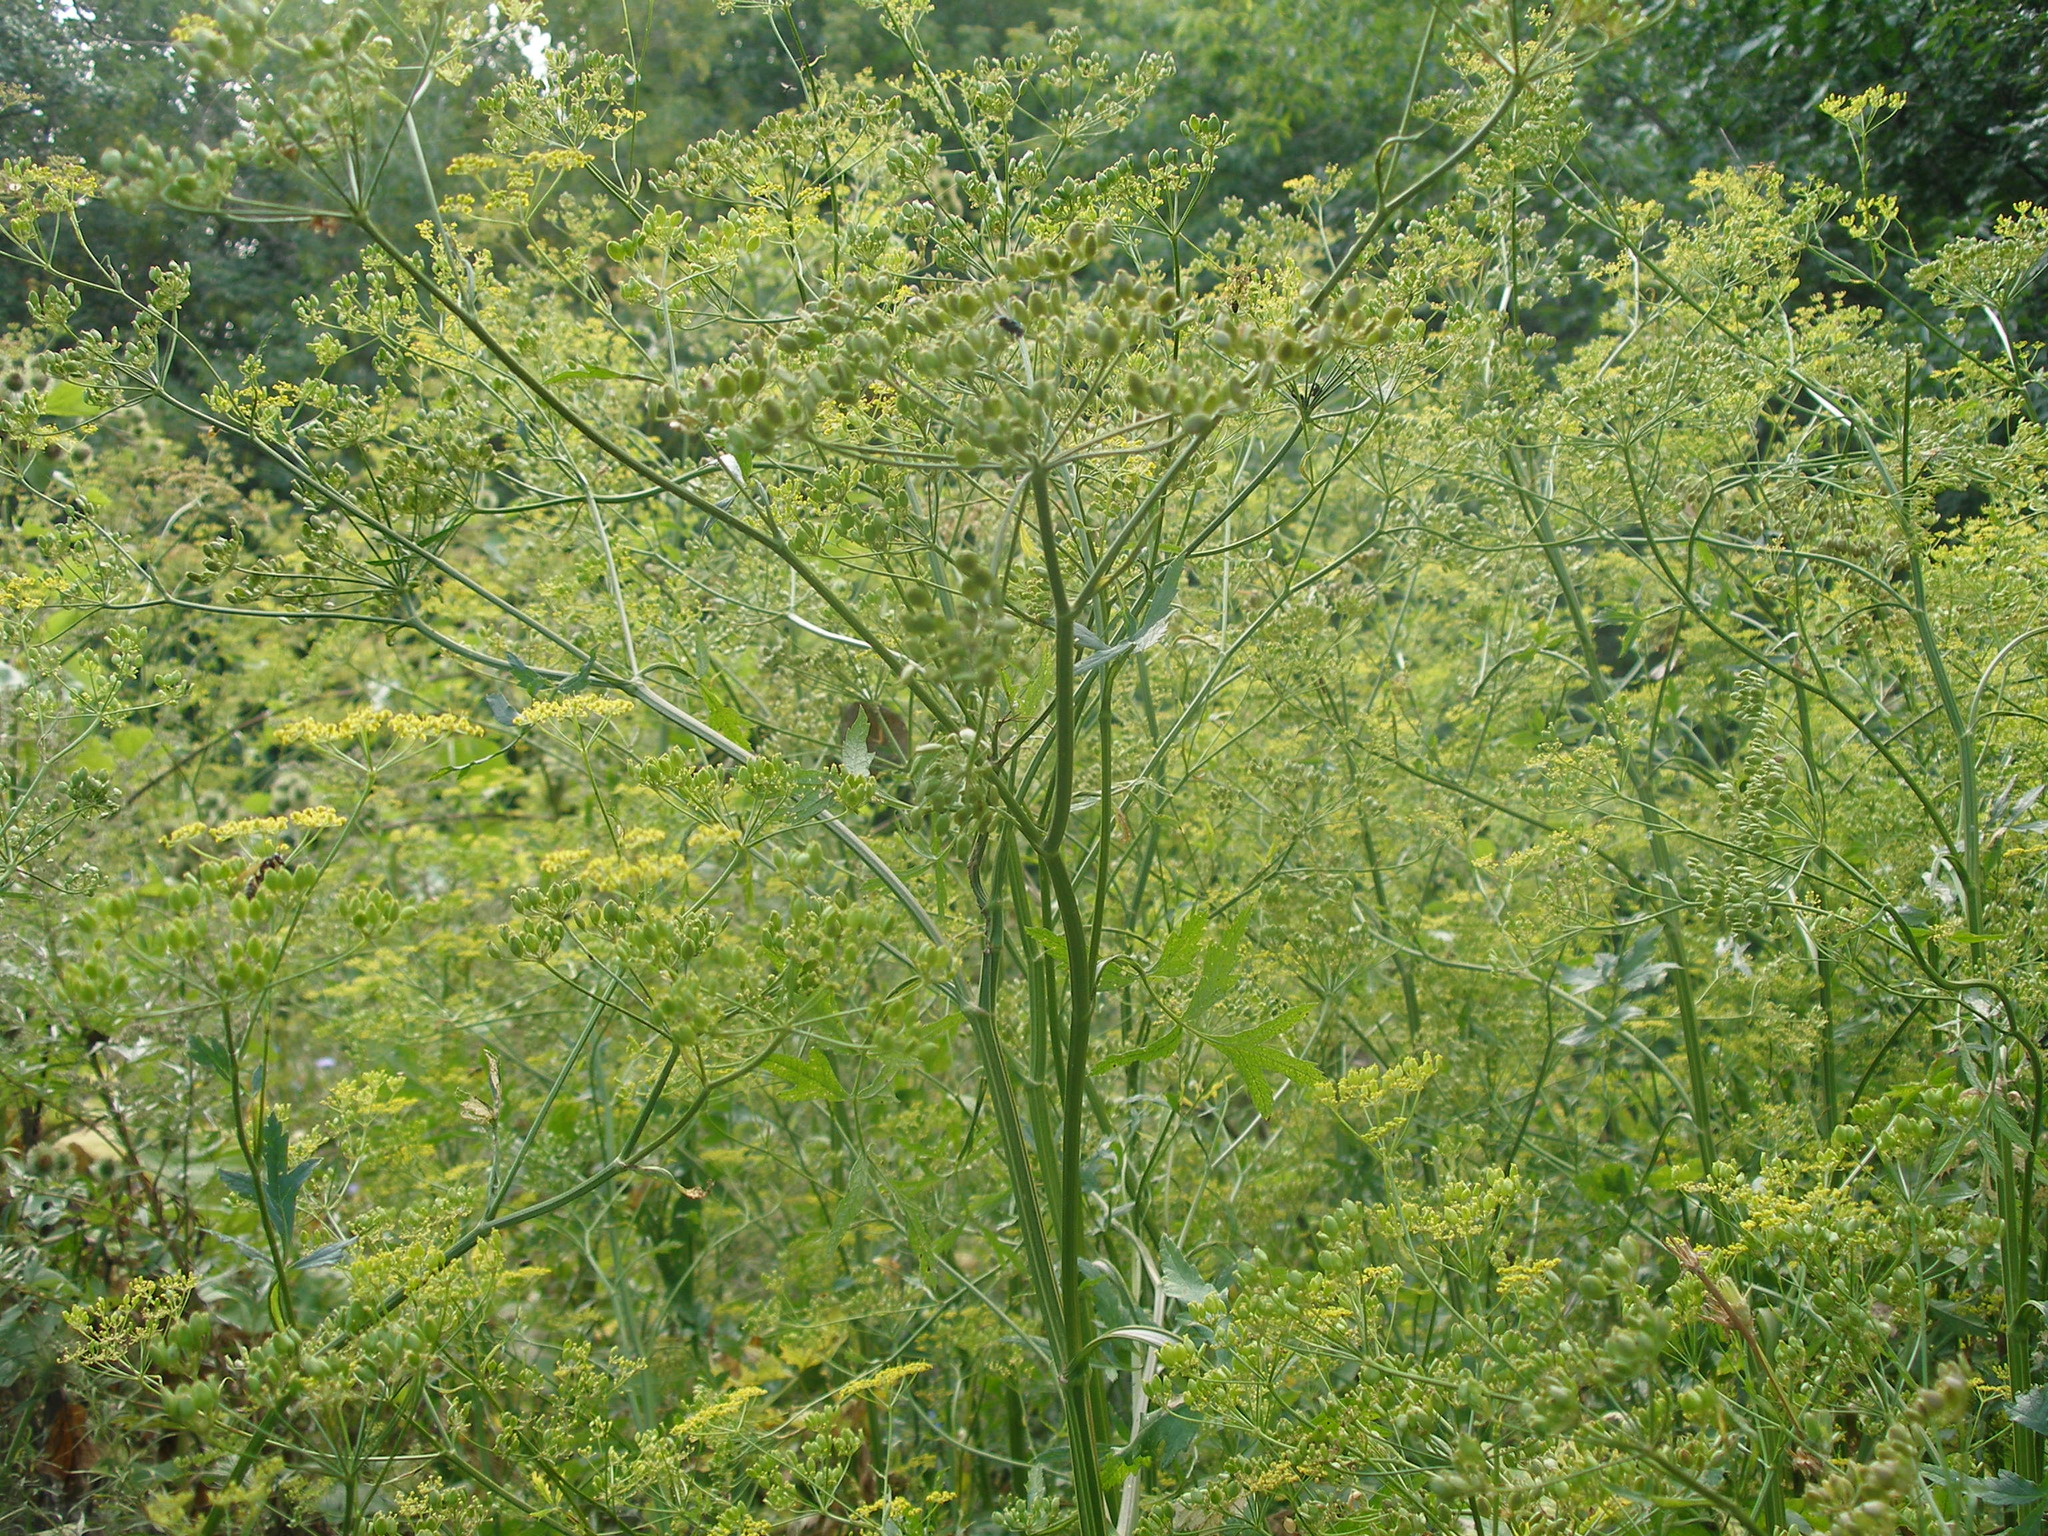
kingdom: Plantae
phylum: Tracheophyta
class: Magnoliopsida
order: Apiales
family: Apiaceae
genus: Pastinaca
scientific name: Pastinaca sativa
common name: Wild parsnip
